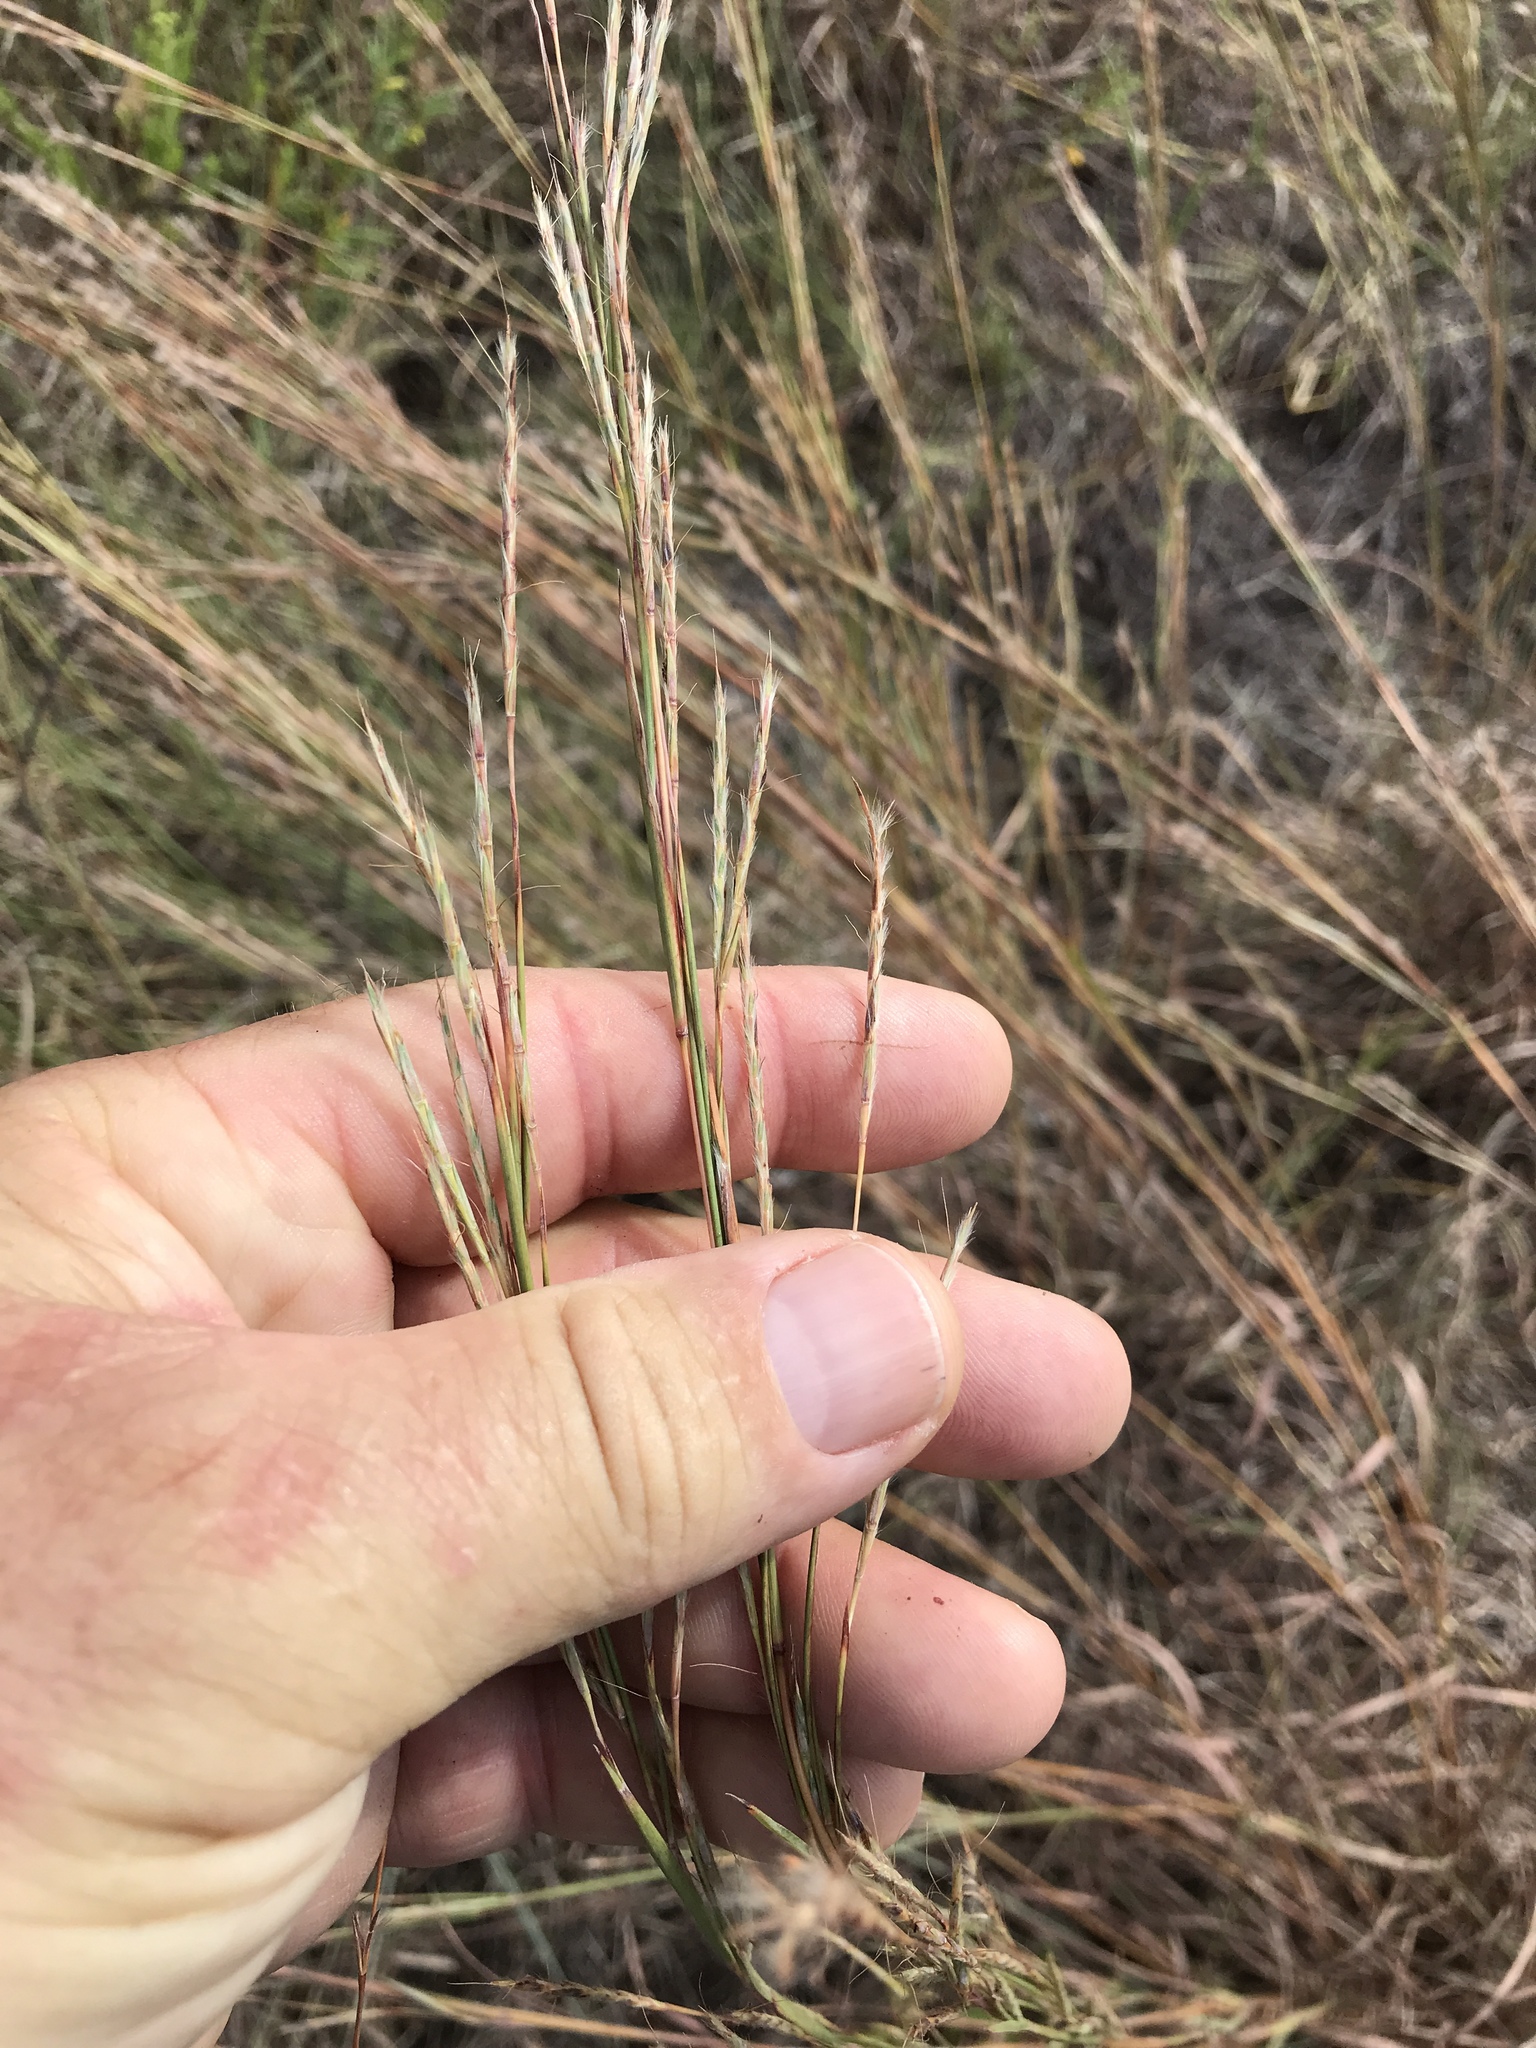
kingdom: Plantae
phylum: Tracheophyta
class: Liliopsida
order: Poales
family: Poaceae
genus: Schizachyrium
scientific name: Schizachyrium scoparium
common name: Little bluestem
